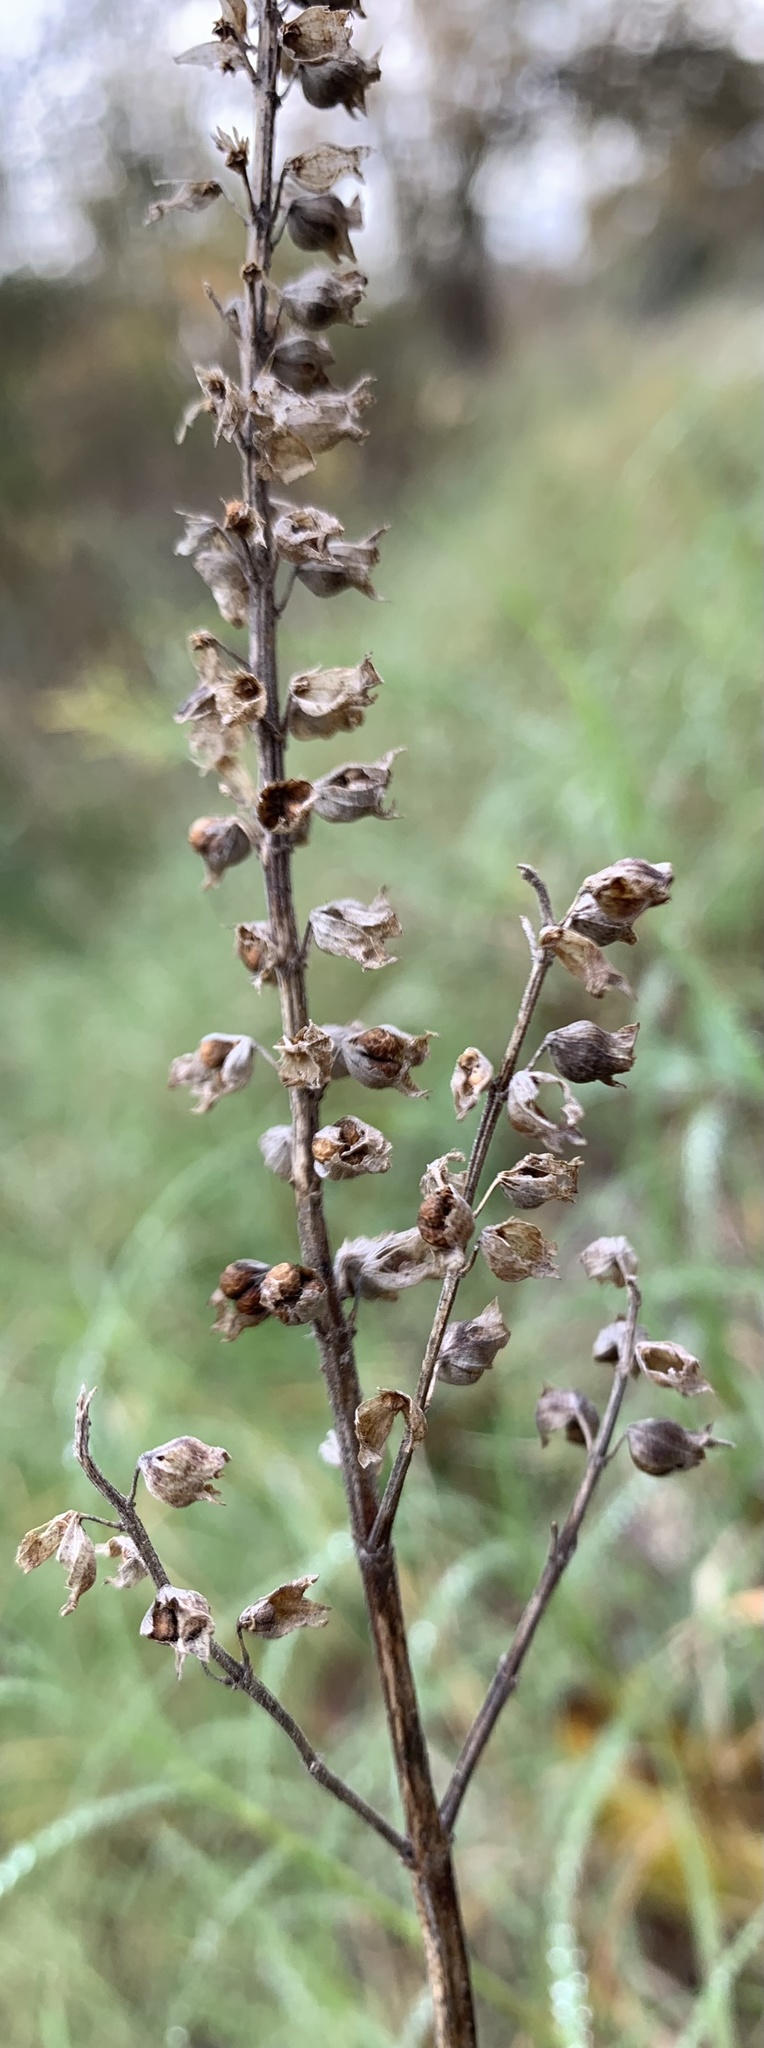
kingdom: Plantae
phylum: Tracheophyta
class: Magnoliopsida
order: Lamiales
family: Lamiaceae
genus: Teucrium
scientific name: Teucrium canadense
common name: American germander
